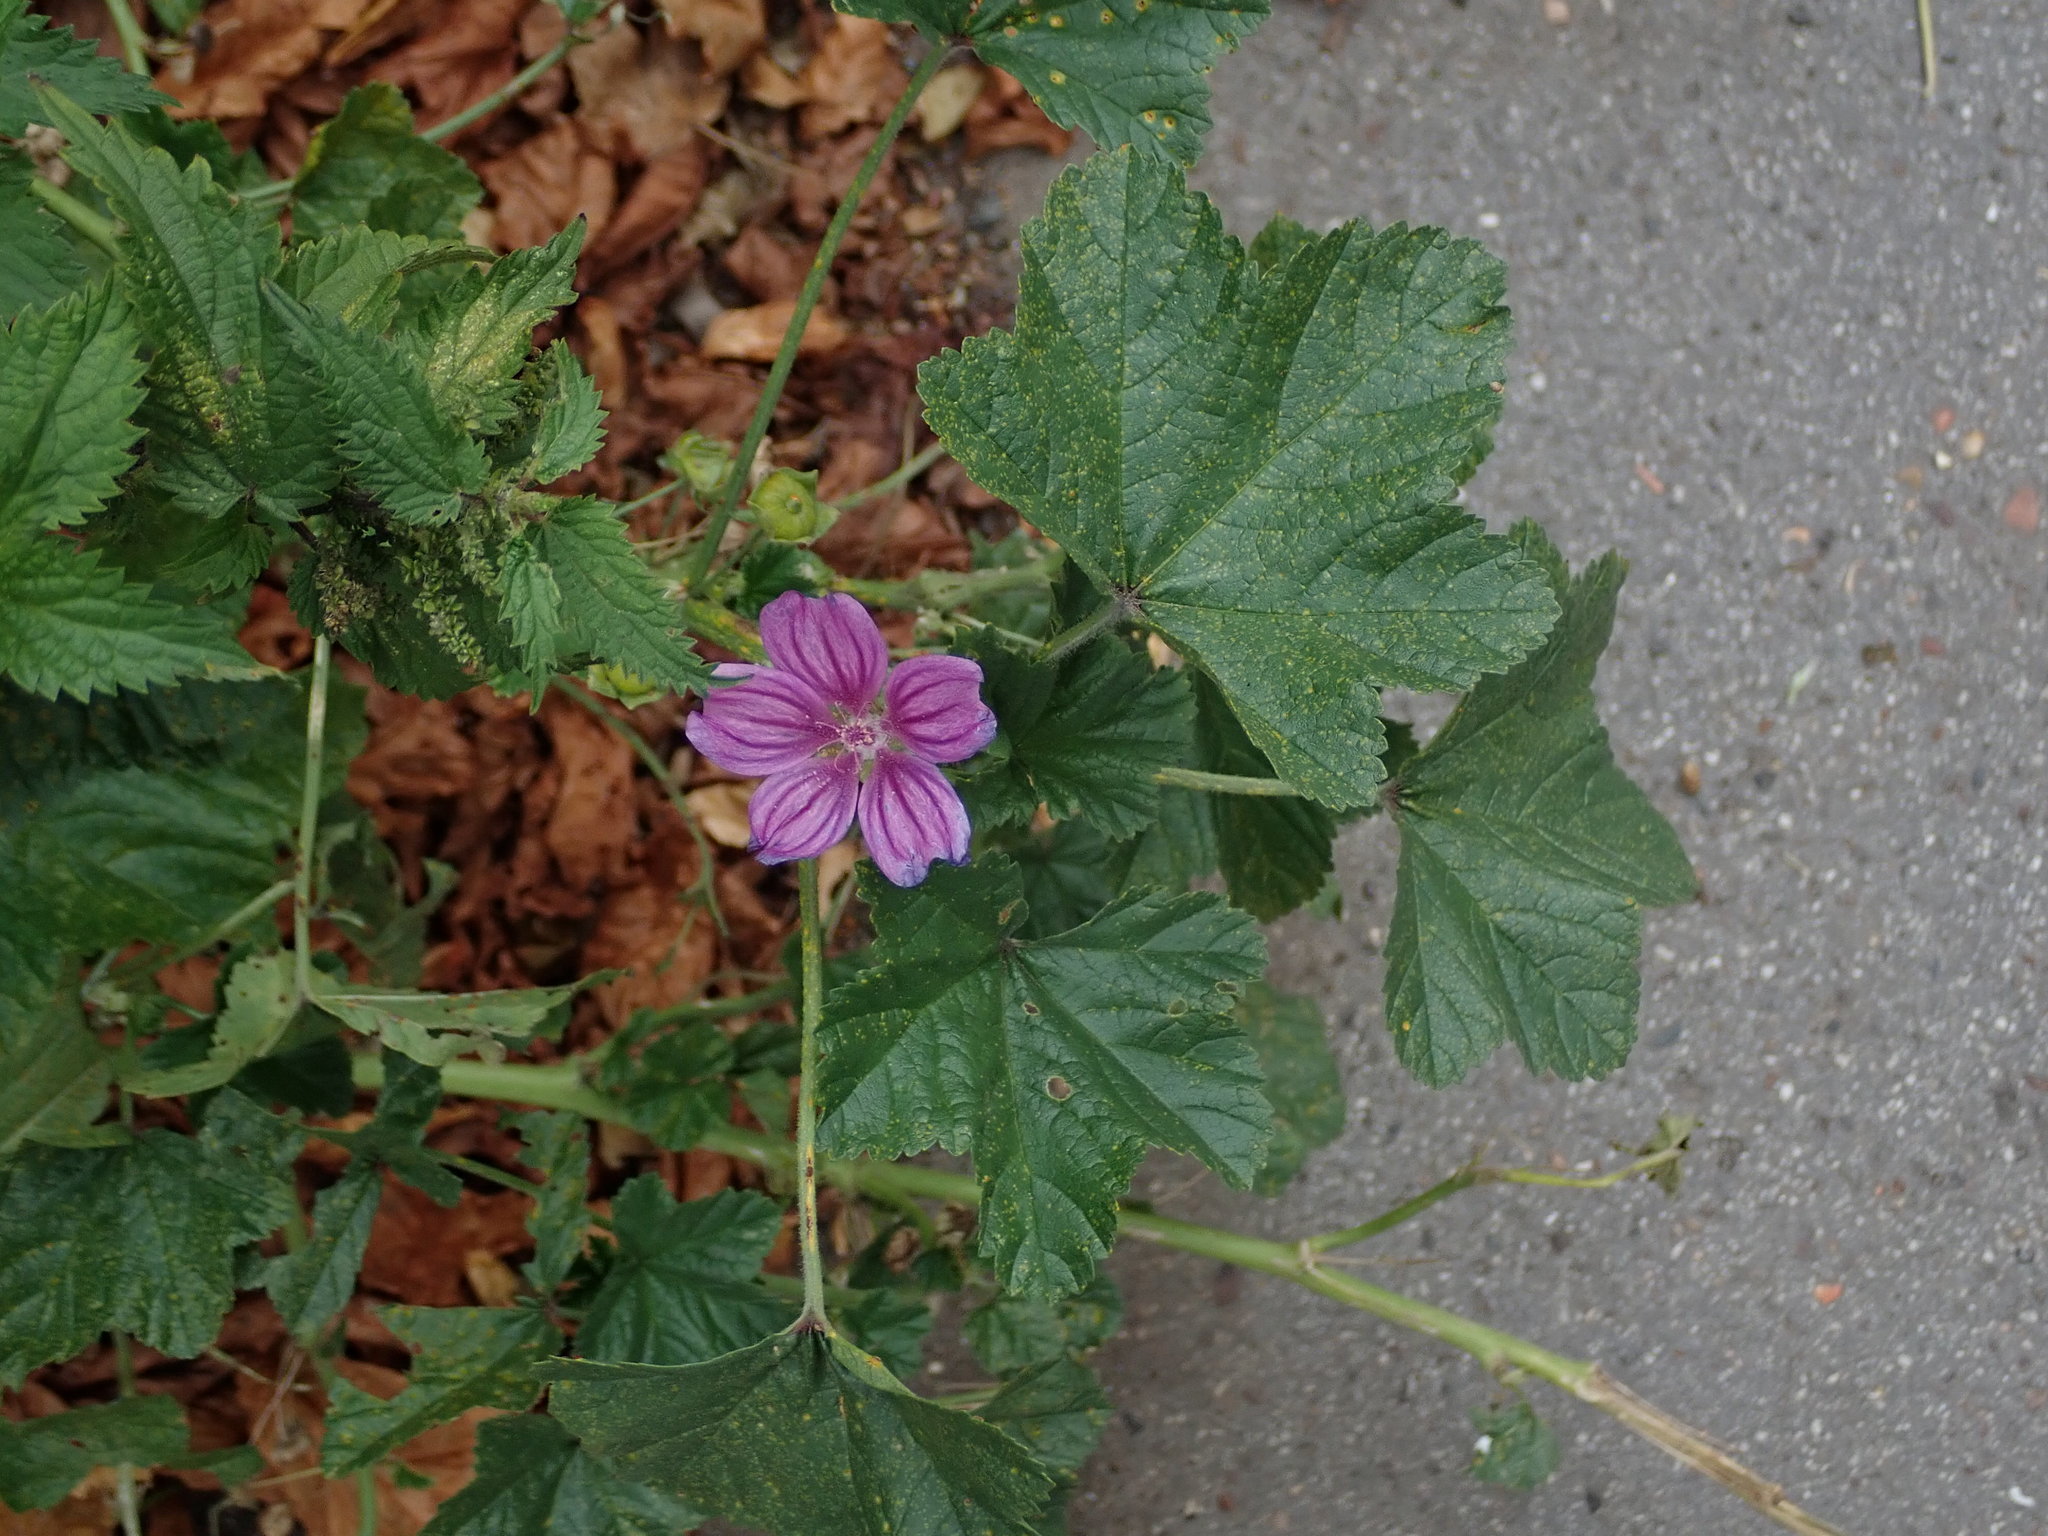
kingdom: Plantae
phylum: Tracheophyta
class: Magnoliopsida
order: Malvales
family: Malvaceae
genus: Malva
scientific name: Malva sylvestris
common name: Common mallow
